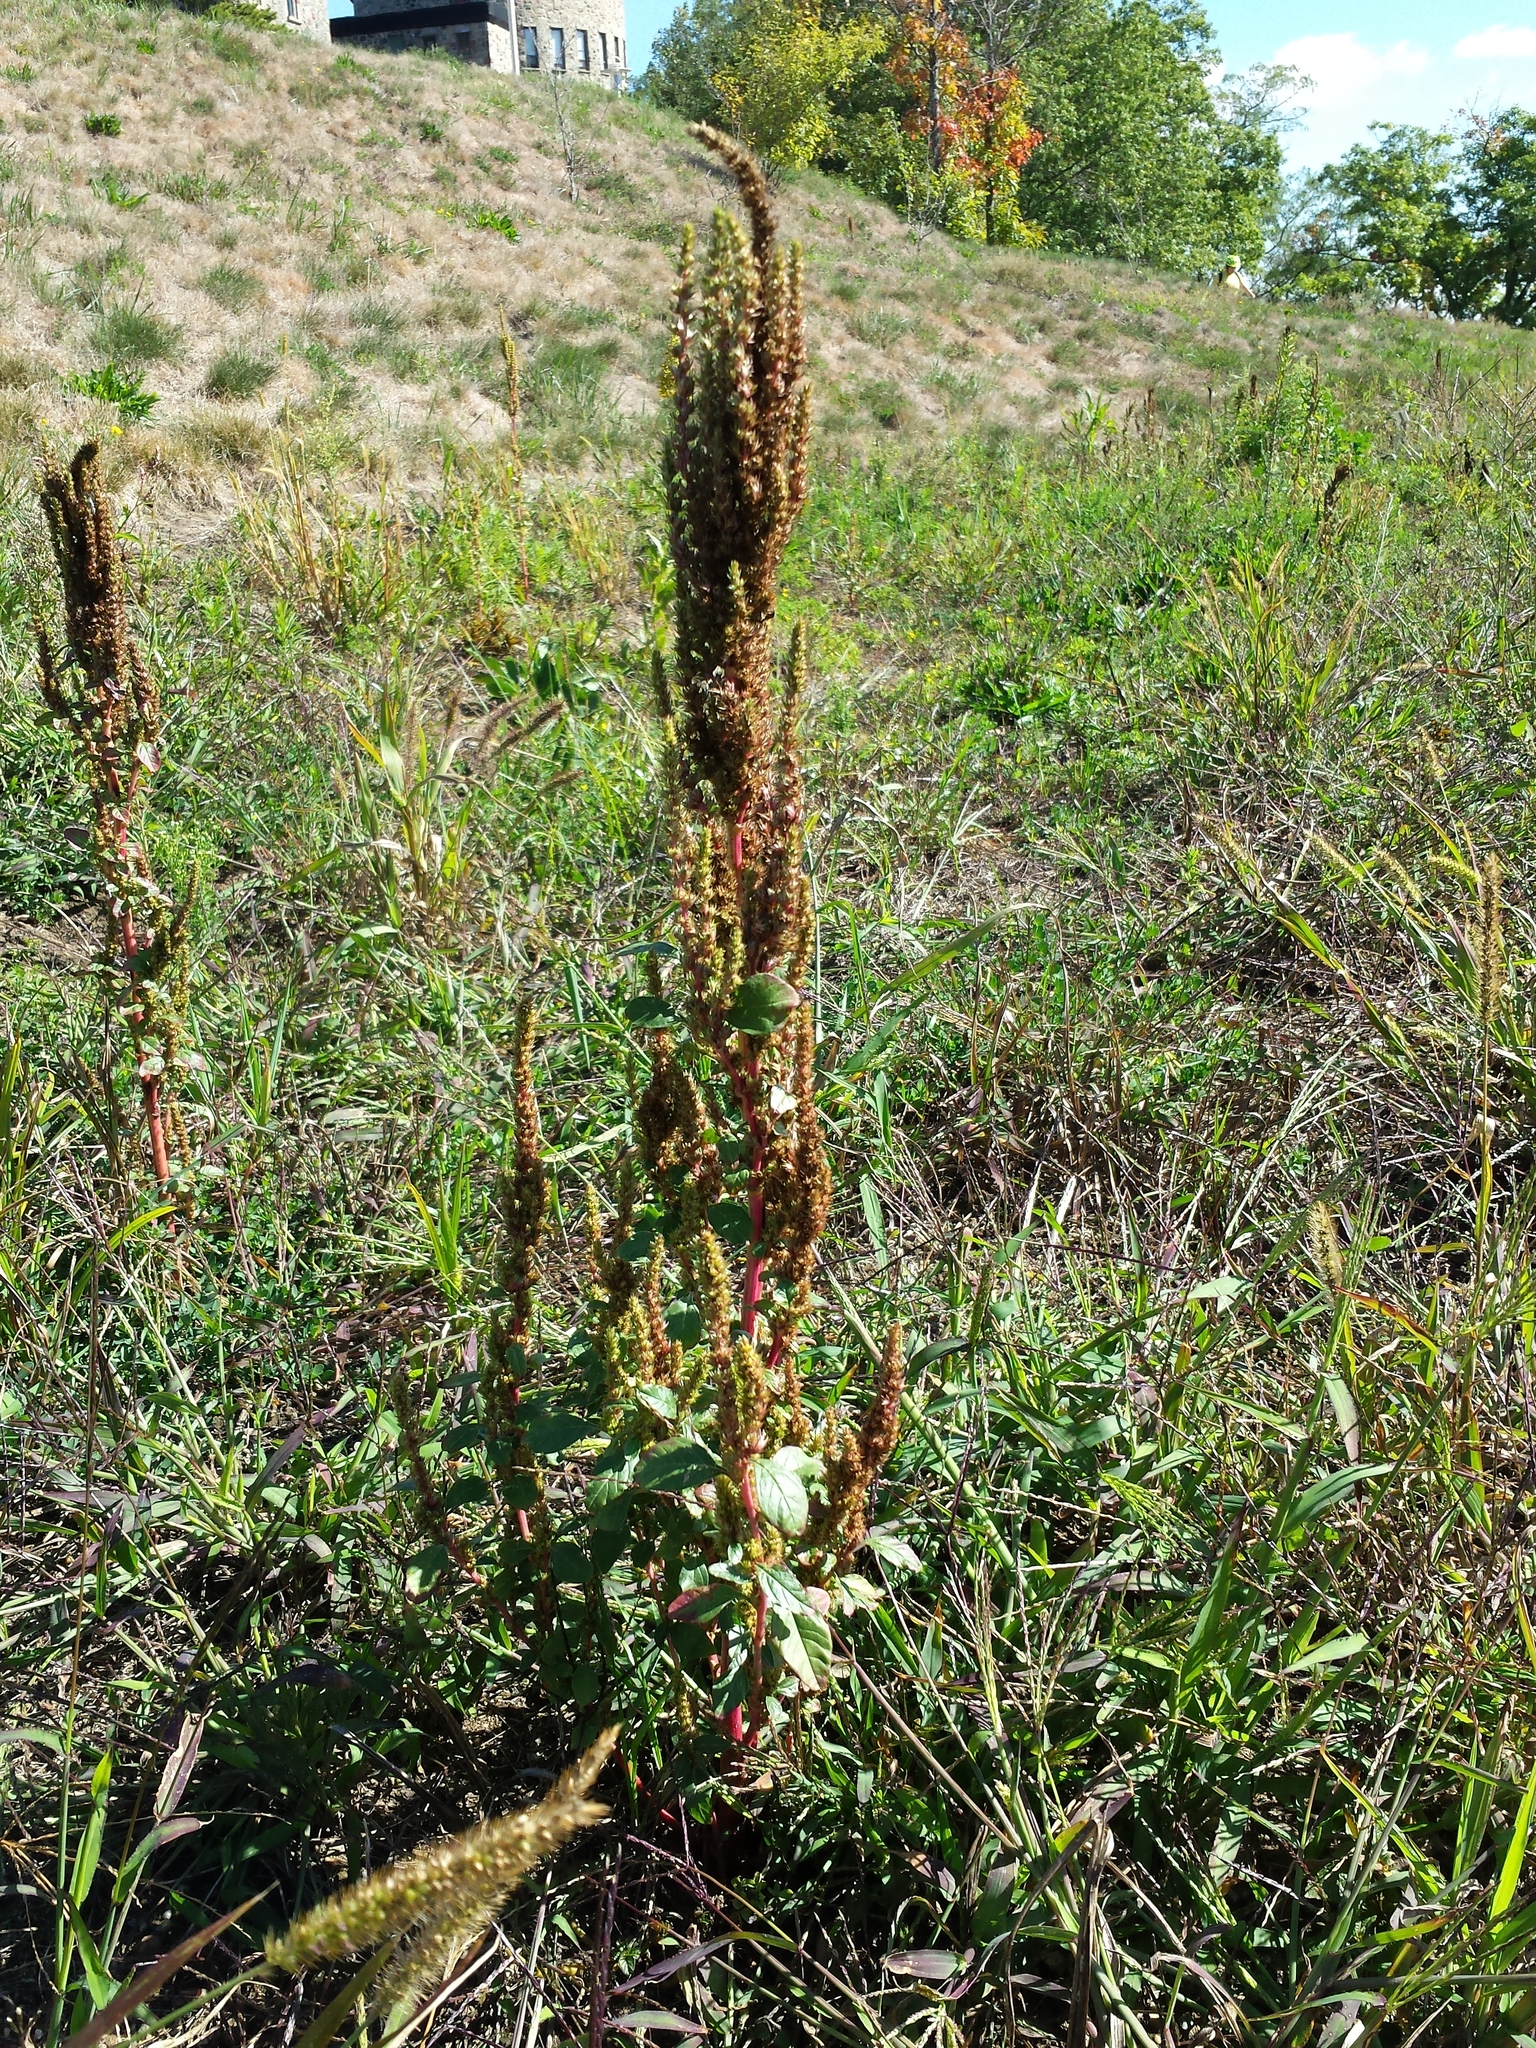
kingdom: Plantae
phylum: Tracheophyta
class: Magnoliopsida
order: Caryophyllales
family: Amaranthaceae
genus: Amaranthus
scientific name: Amaranthus retroflexus
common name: Redroot amaranth
